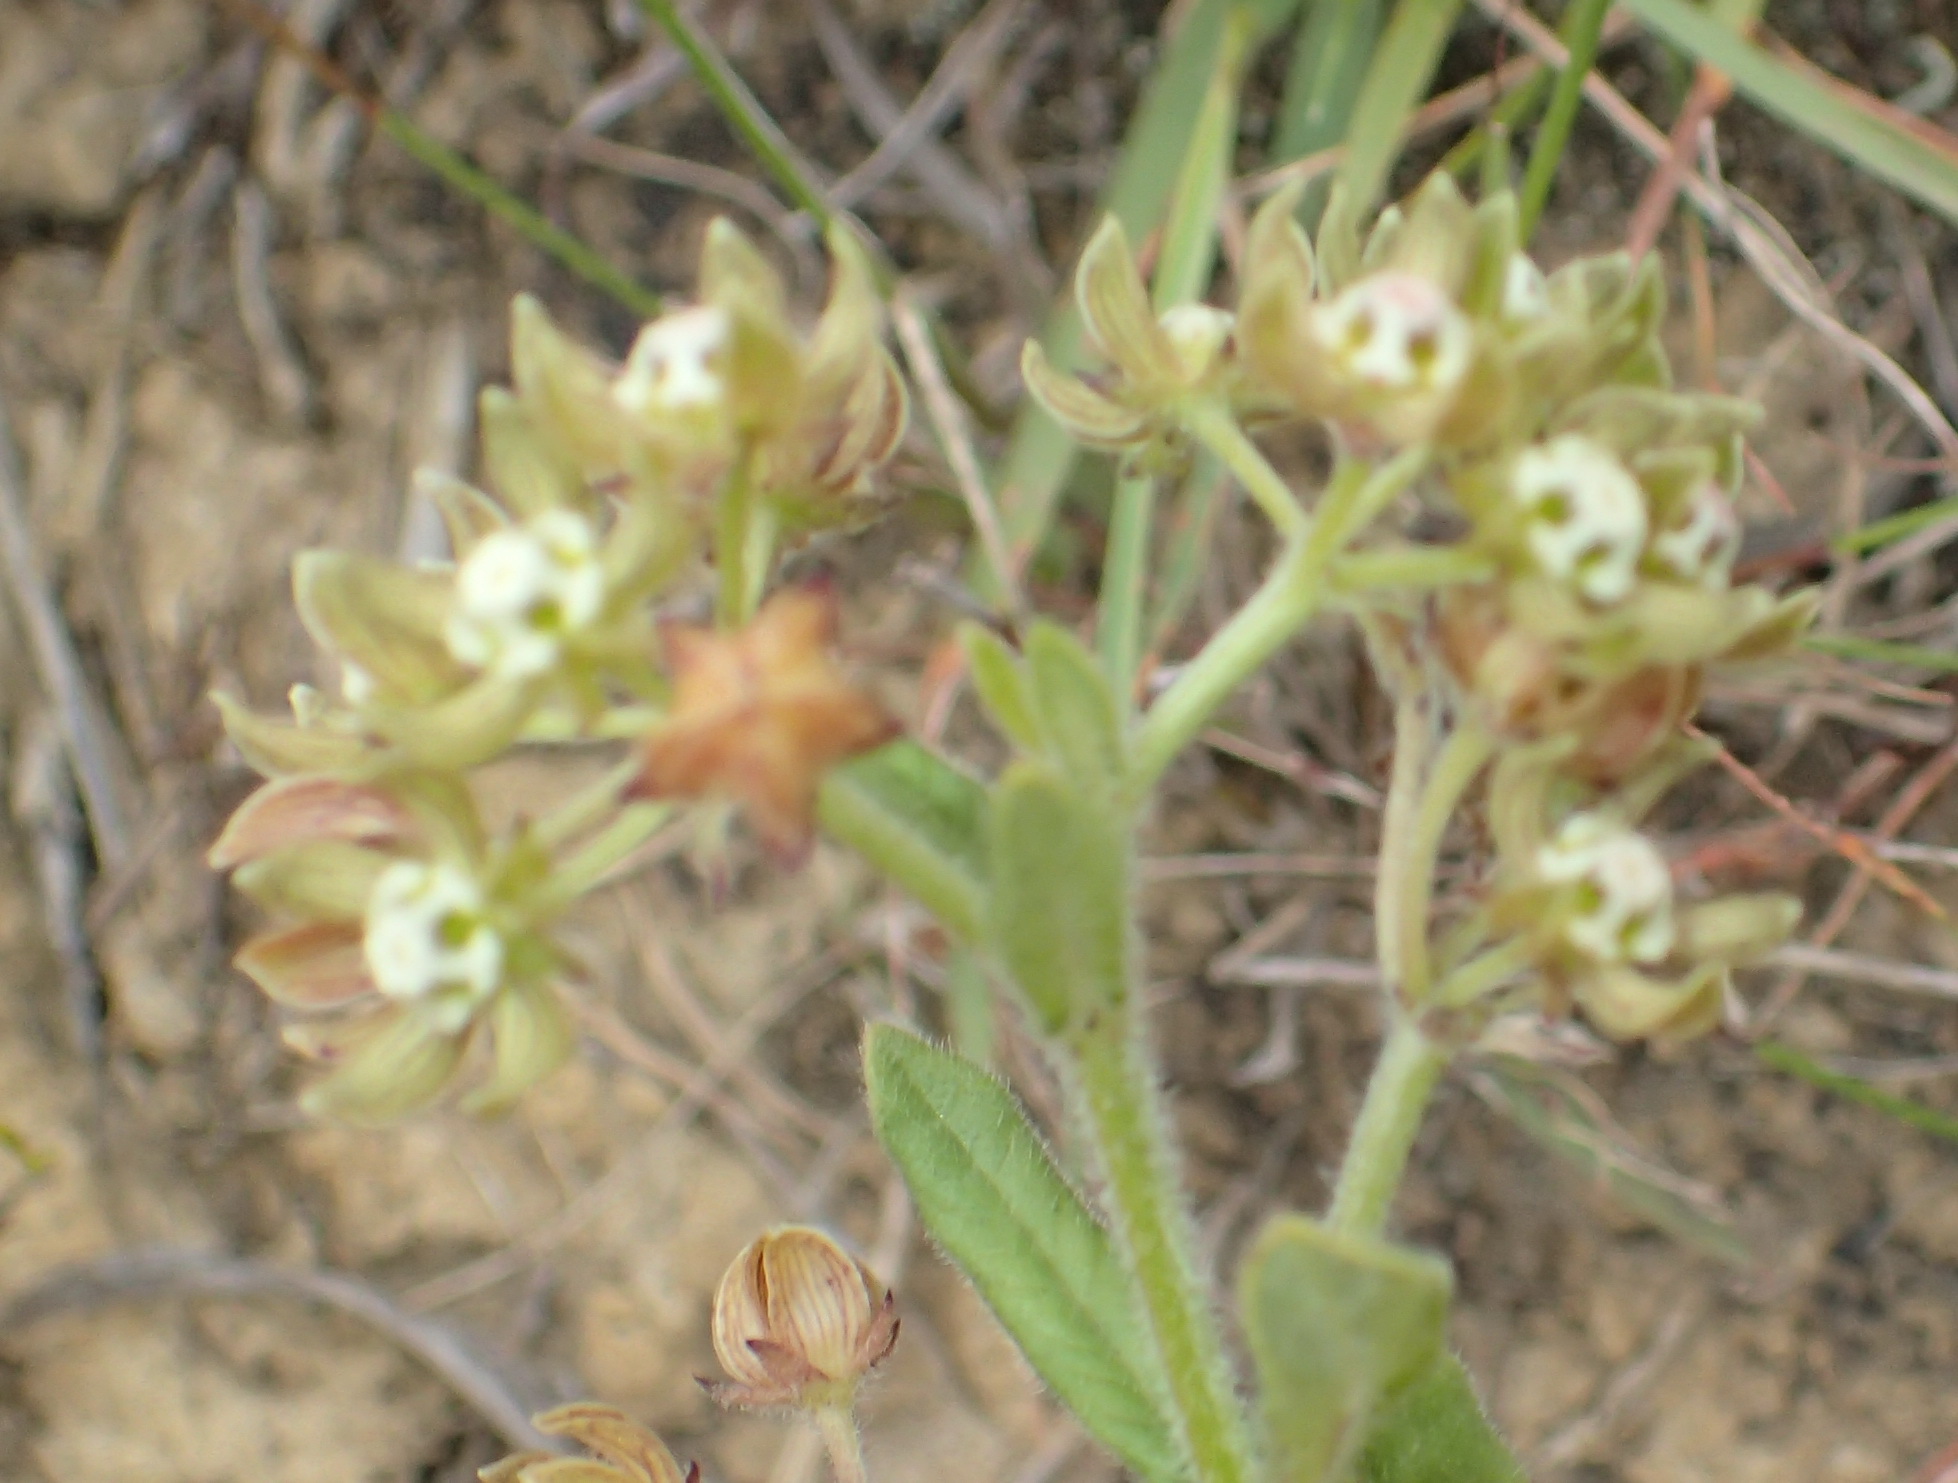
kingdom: Plantae
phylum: Tracheophyta
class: Magnoliopsida
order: Gentianales
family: Apocynaceae
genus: Schizoglossum
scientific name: Schizoglossum cordifolium
